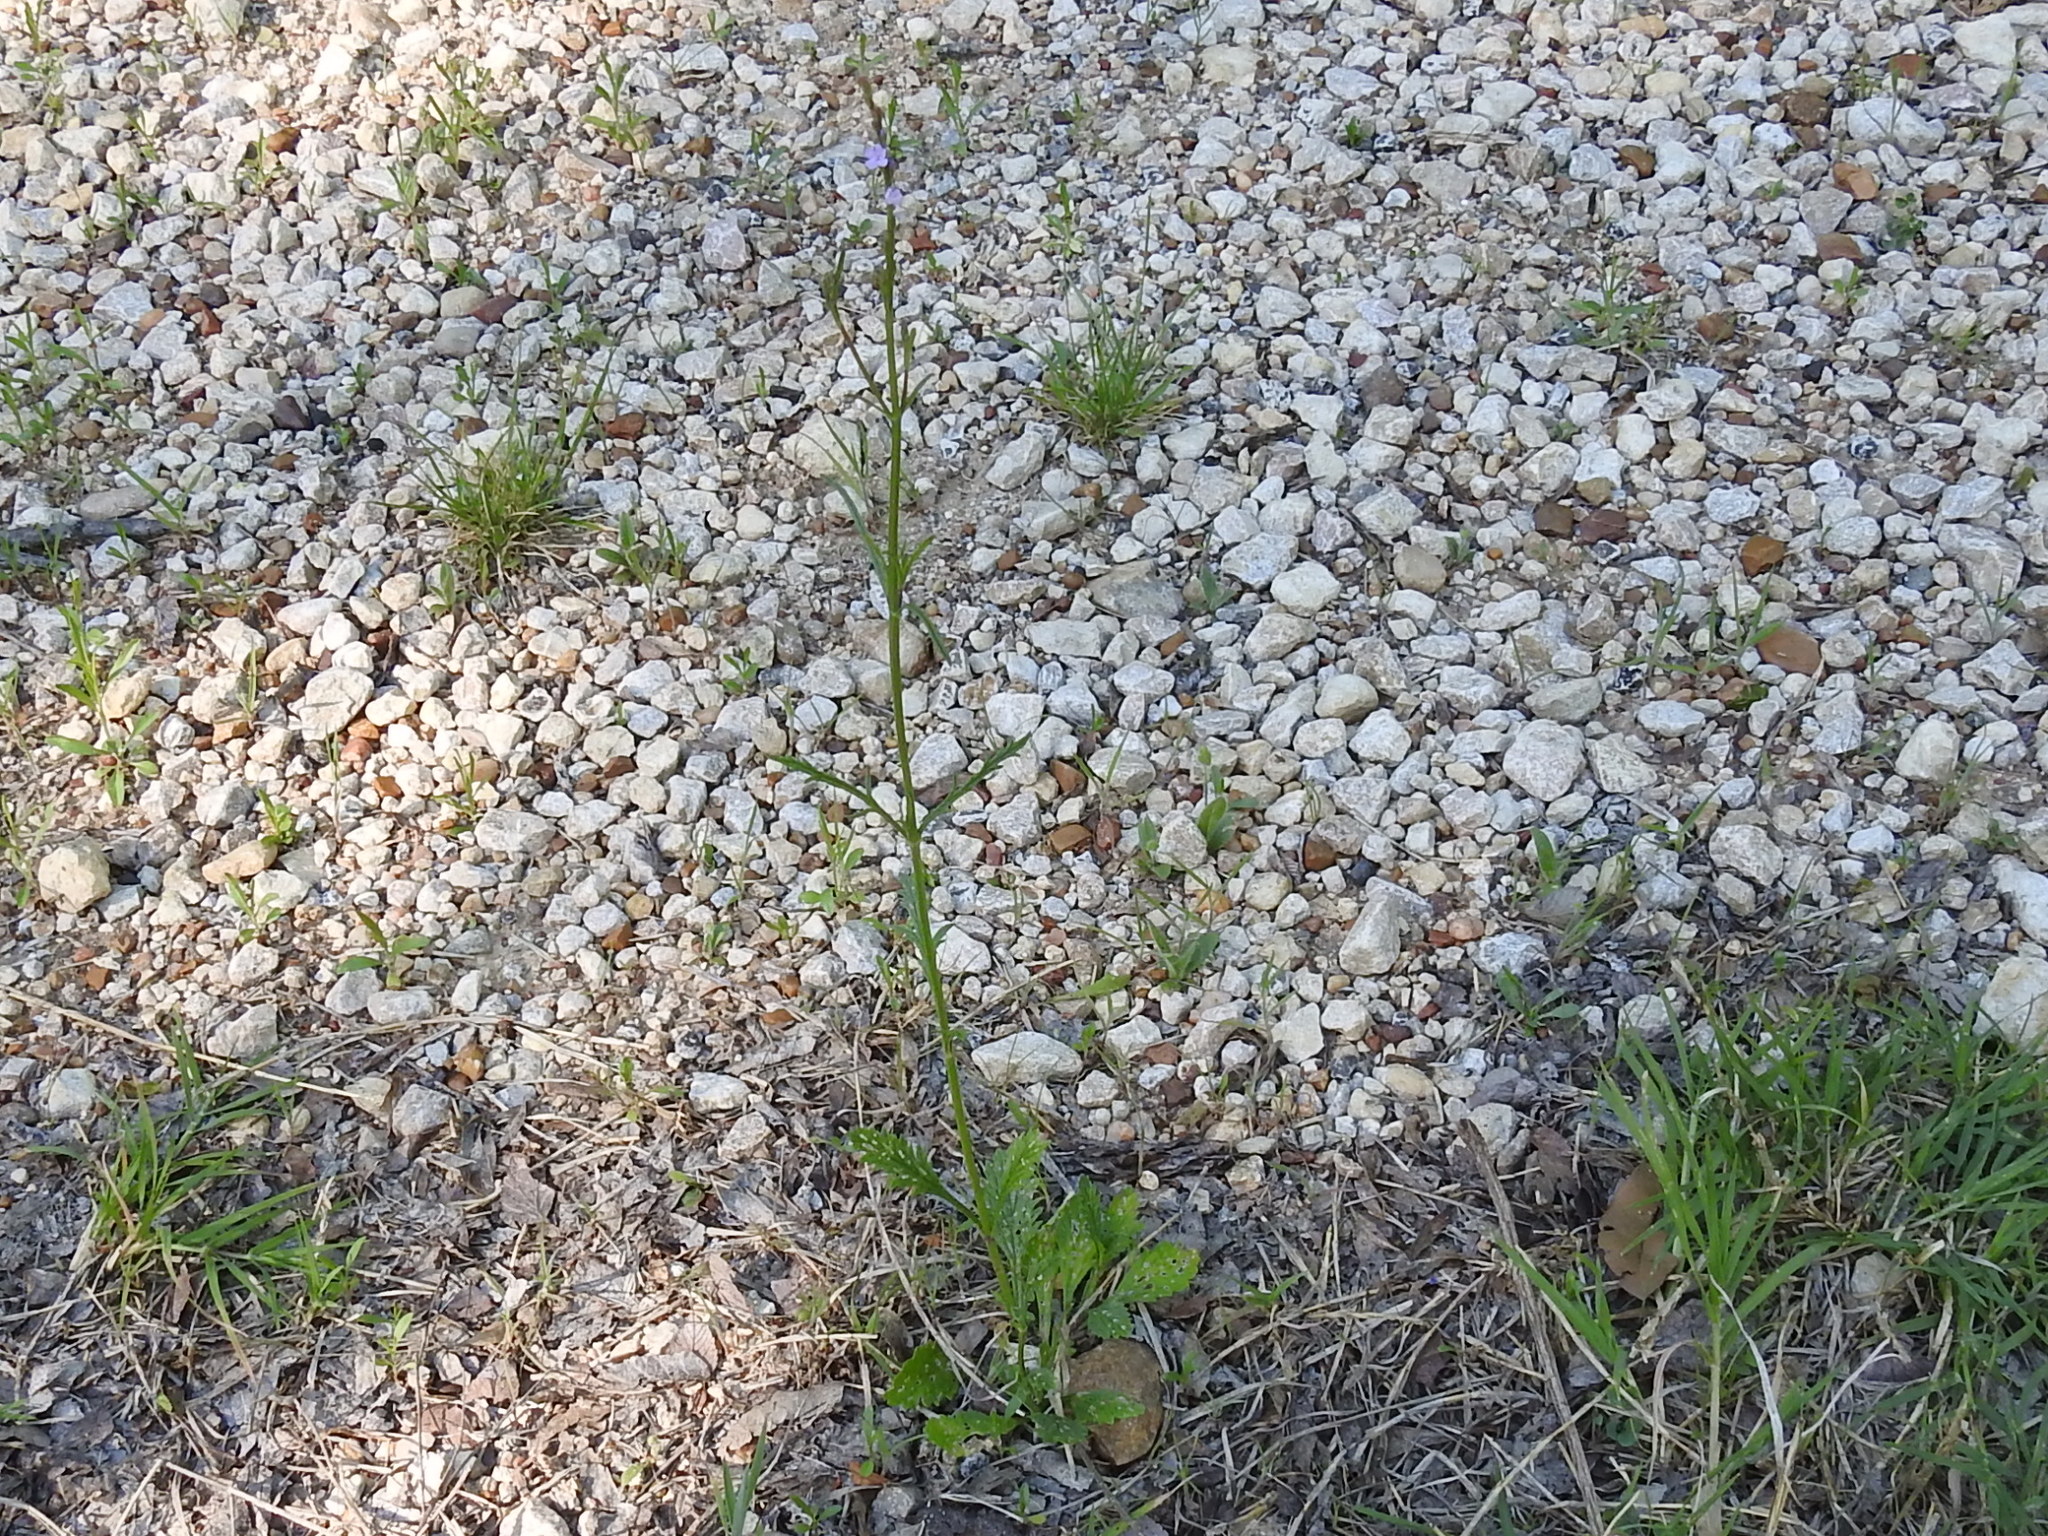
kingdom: Plantae
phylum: Tracheophyta
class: Magnoliopsida
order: Lamiales
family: Verbenaceae
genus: Verbena
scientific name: Verbena halei
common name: Texas vervain
